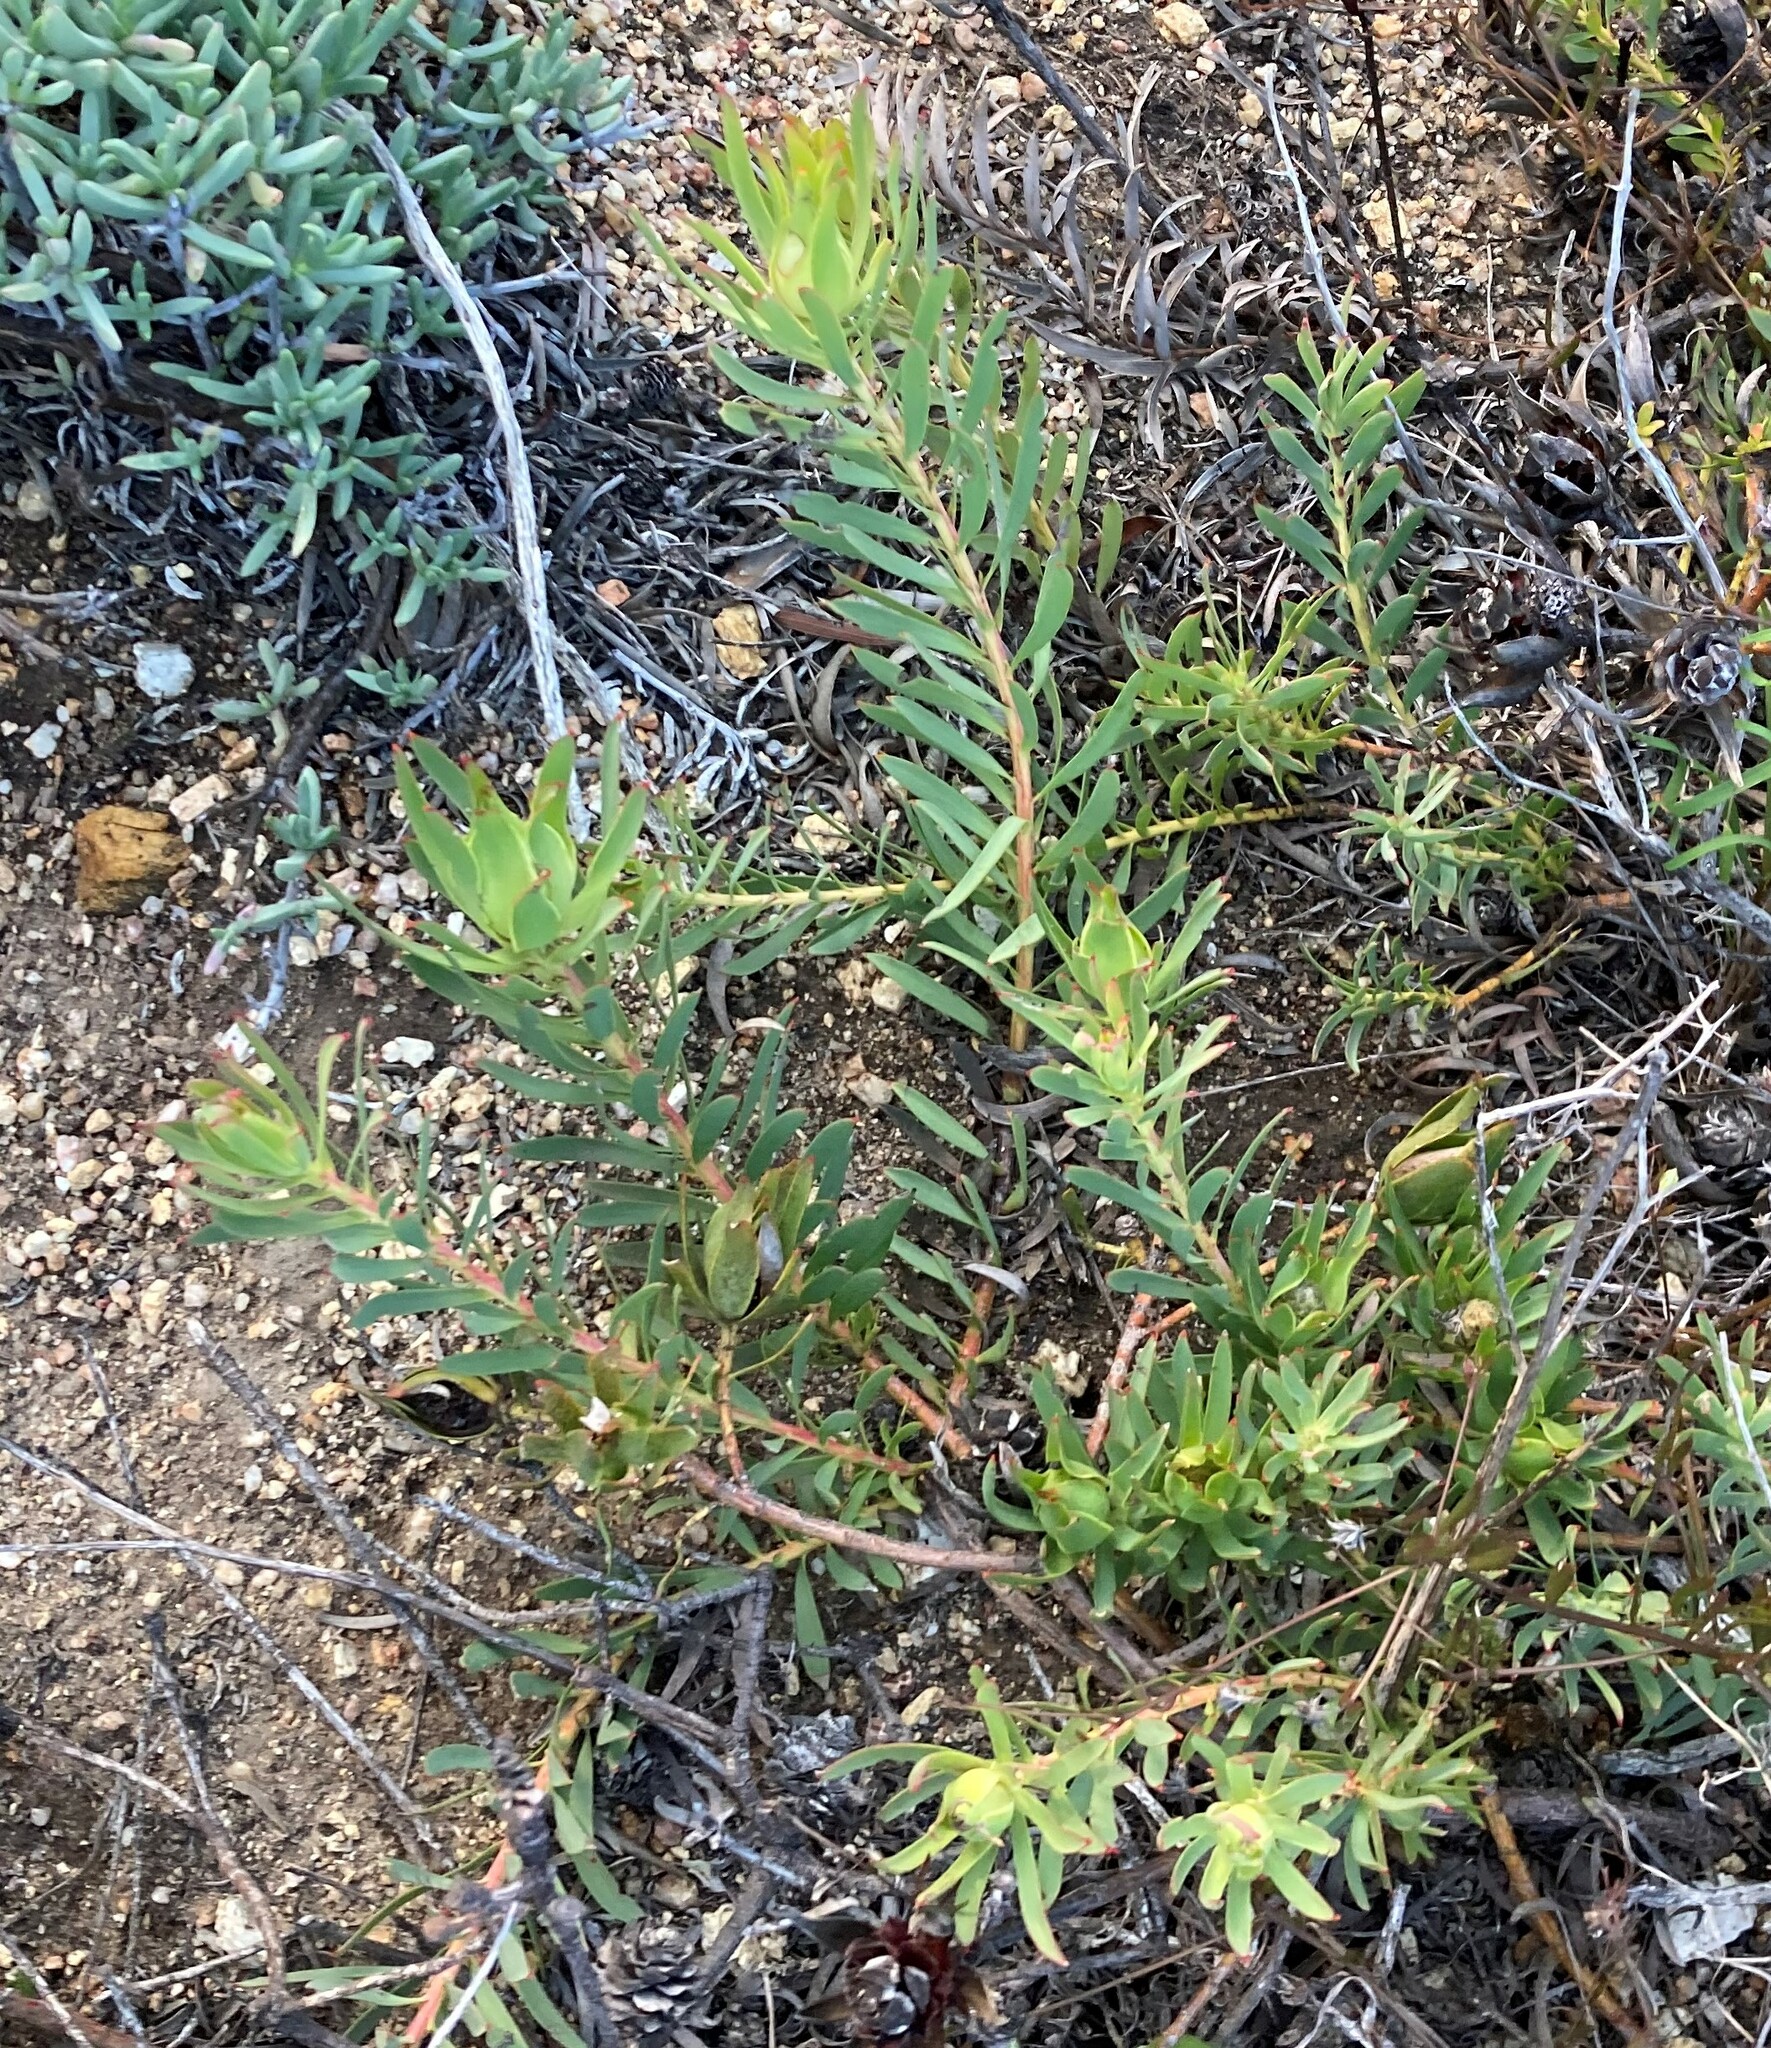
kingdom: Plantae
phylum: Tracheophyta
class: Magnoliopsida
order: Proteales
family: Proteaceae
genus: Leucadendron
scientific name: Leucadendron salignum
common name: Common sunshine conebush
